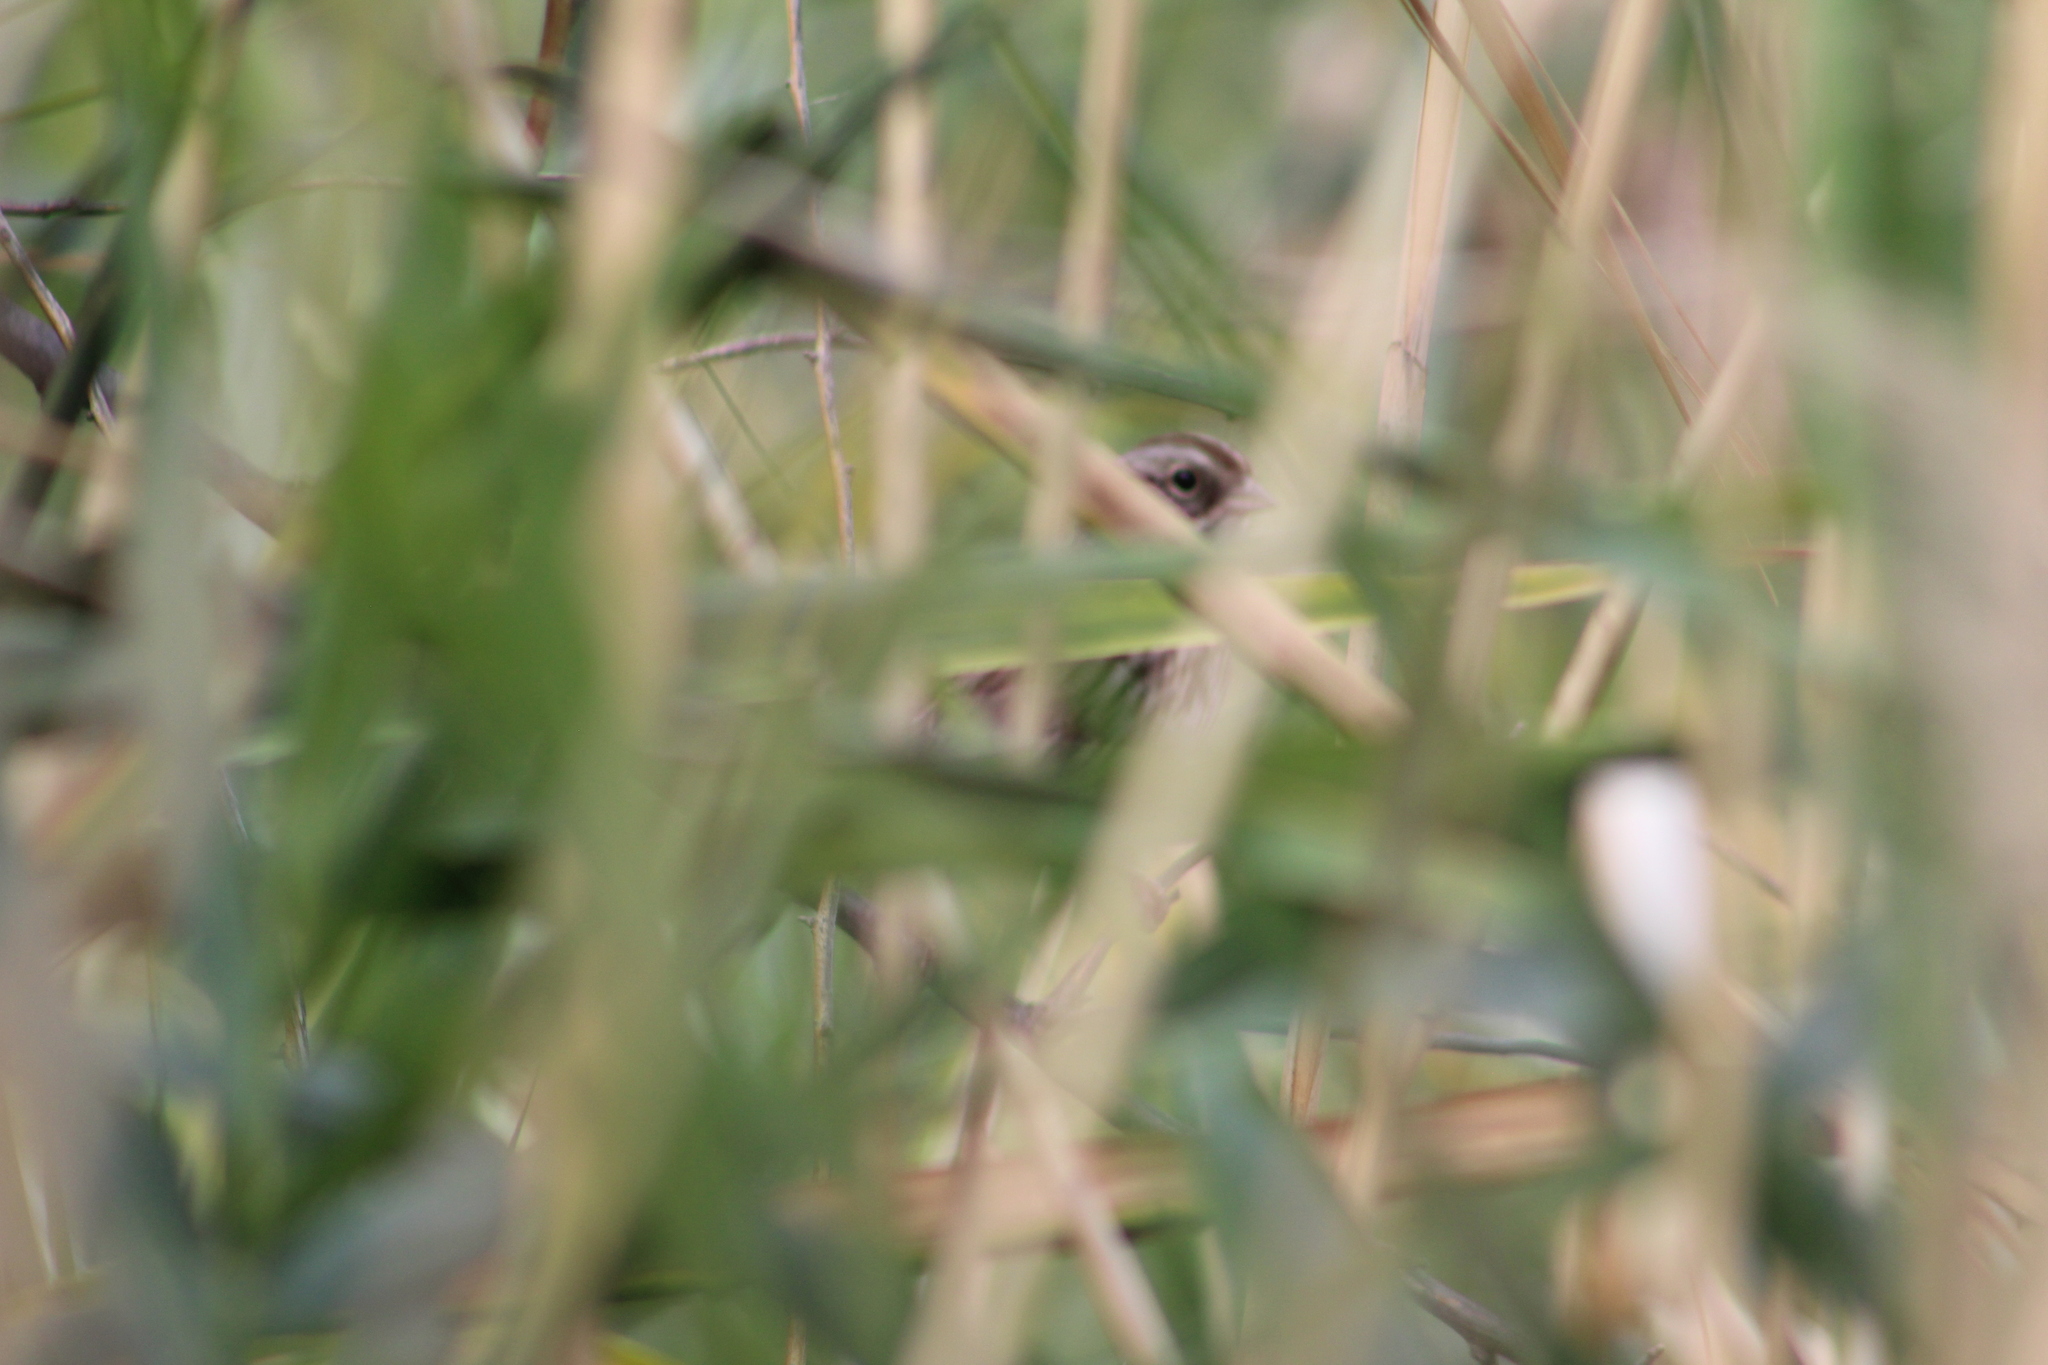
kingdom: Animalia
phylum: Chordata
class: Aves
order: Passeriformes
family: Passerellidae
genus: Melospiza
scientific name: Melospiza melodia
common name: Song sparrow
